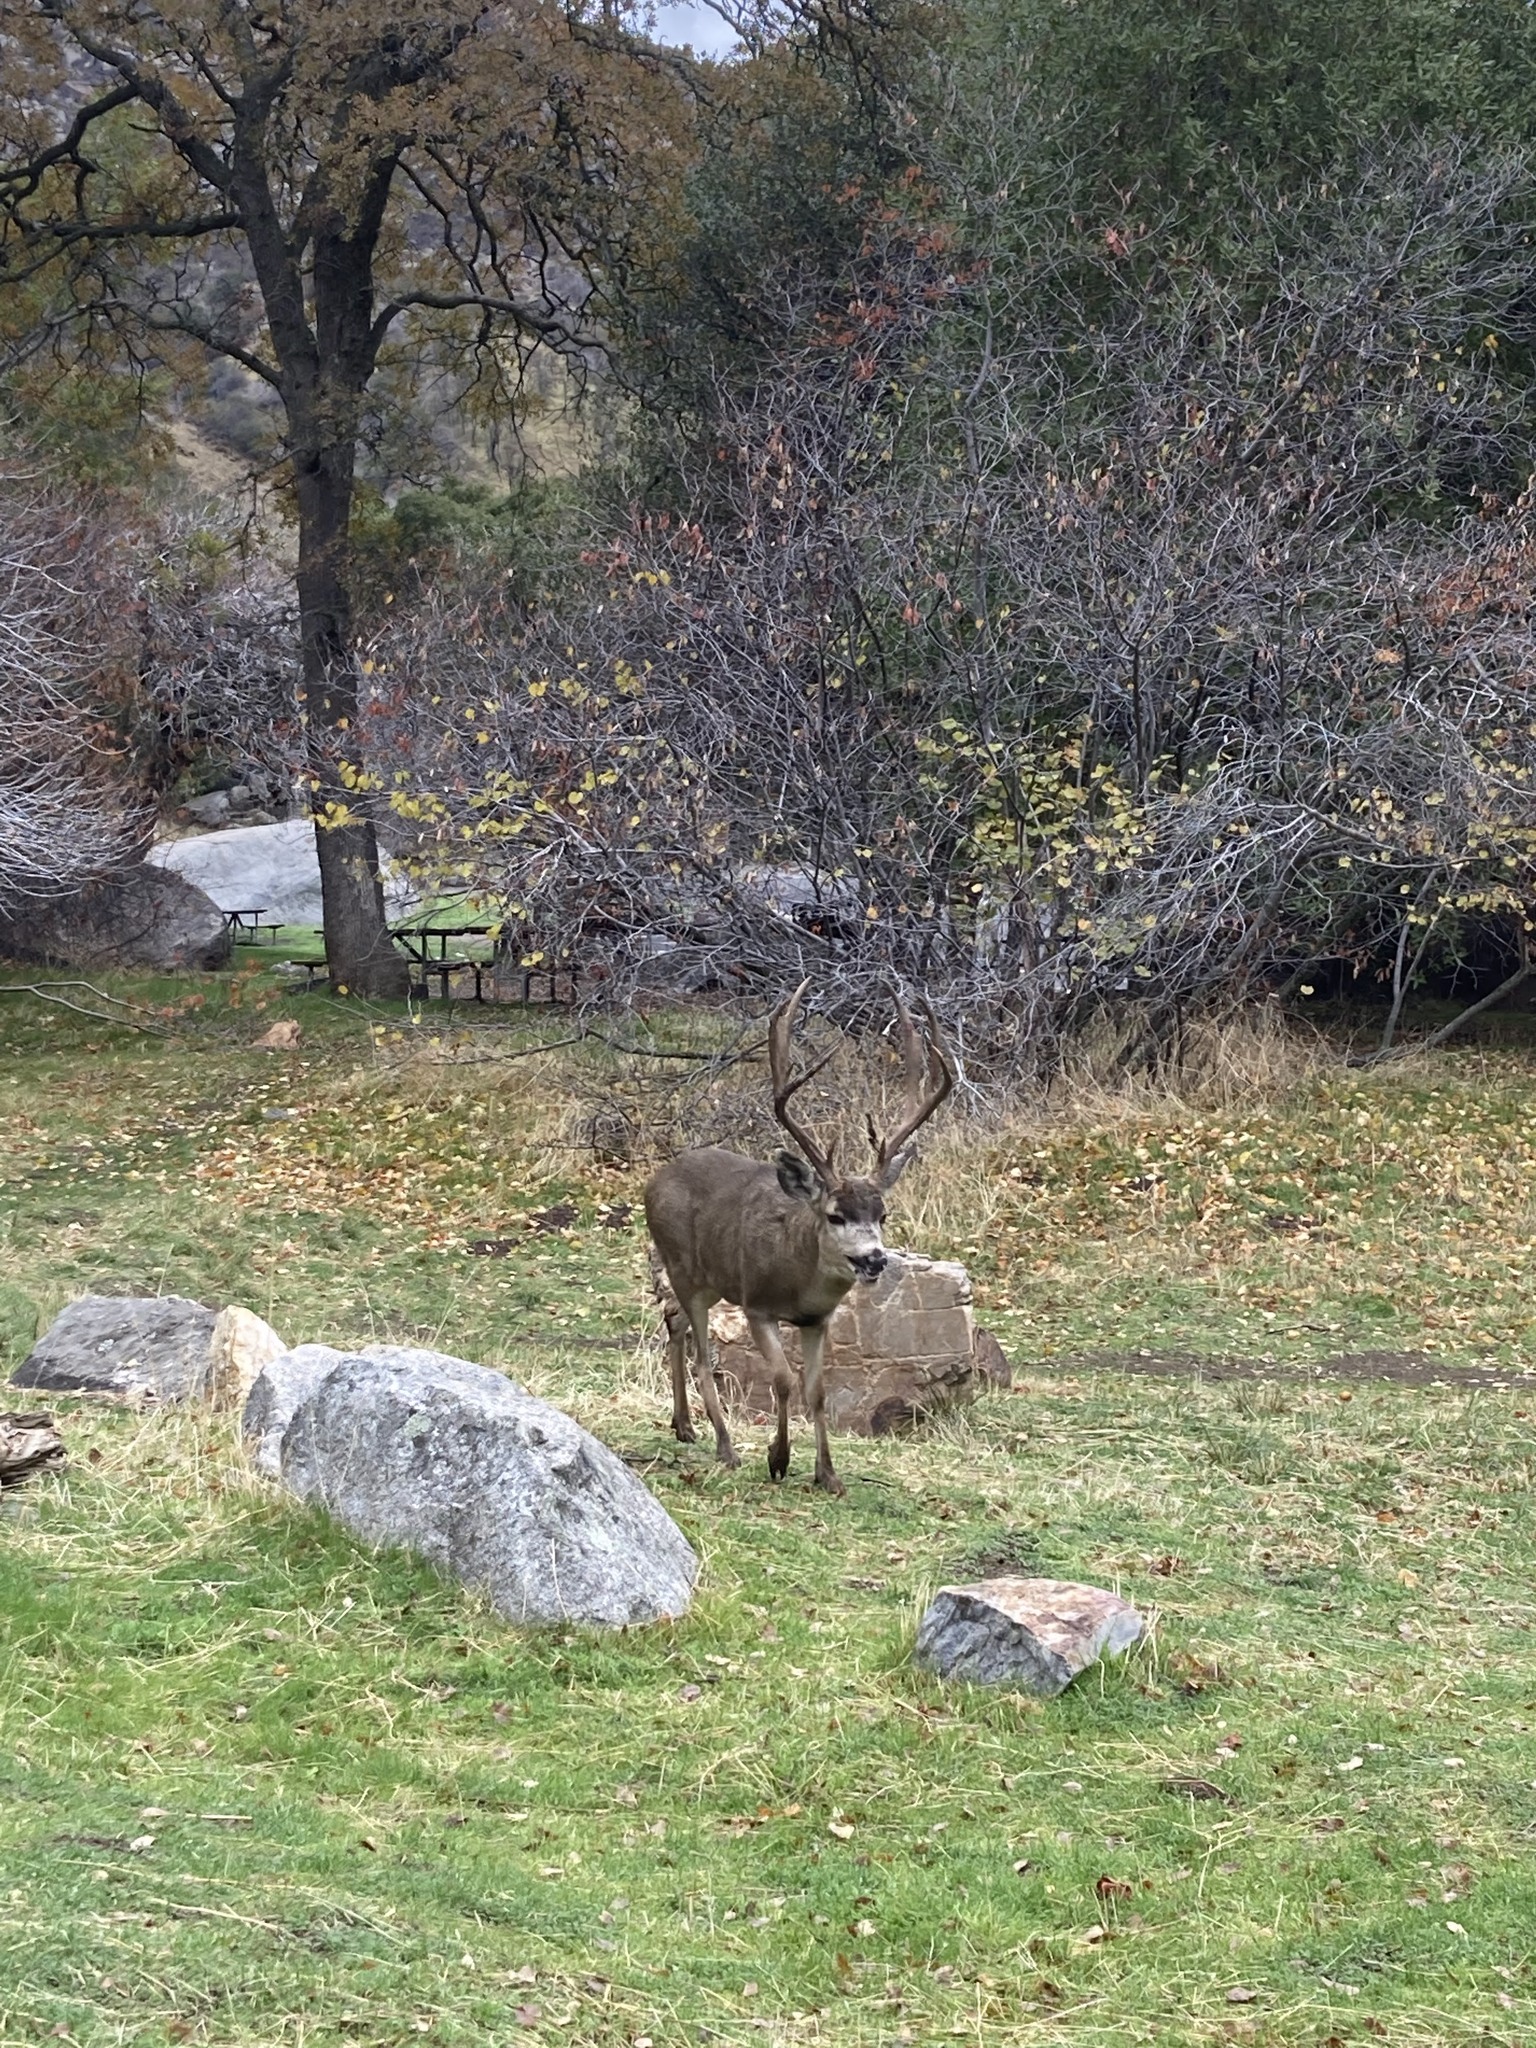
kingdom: Animalia
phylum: Chordata
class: Mammalia
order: Artiodactyla
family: Cervidae
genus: Odocoileus
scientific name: Odocoileus hemionus
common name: Mule deer
